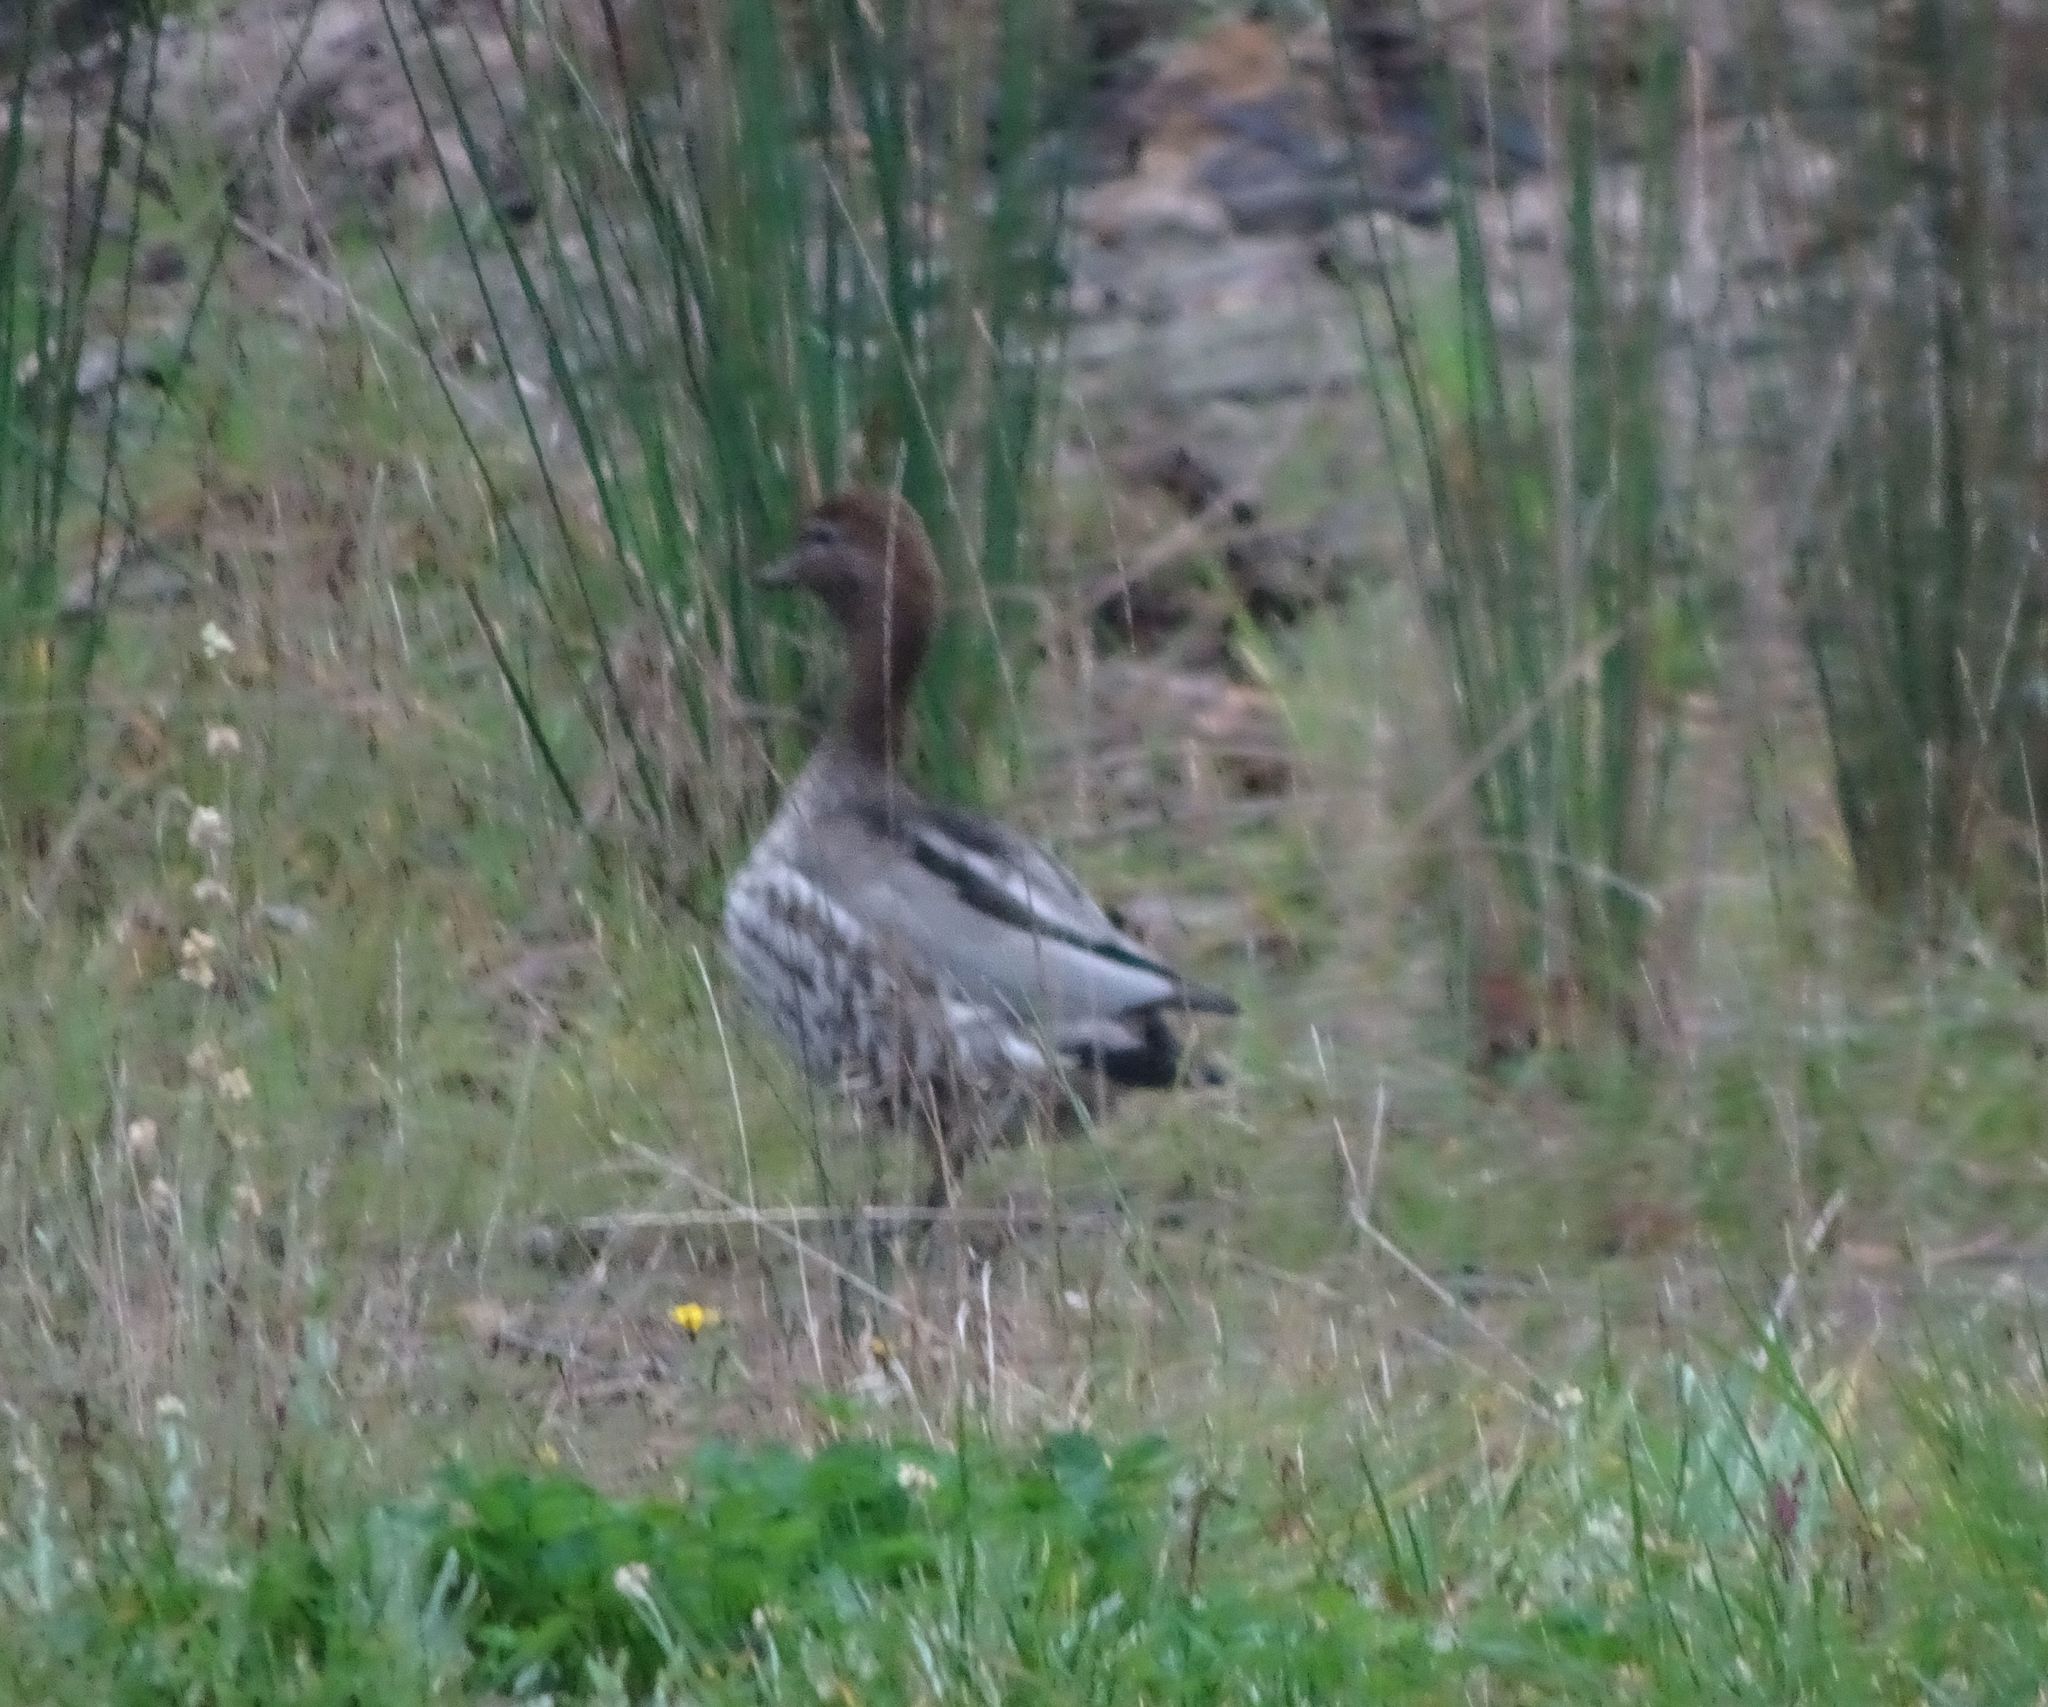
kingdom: Animalia
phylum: Chordata
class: Aves
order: Anseriformes
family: Anatidae
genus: Chenonetta
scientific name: Chenonetta jubata
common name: Maned duck
